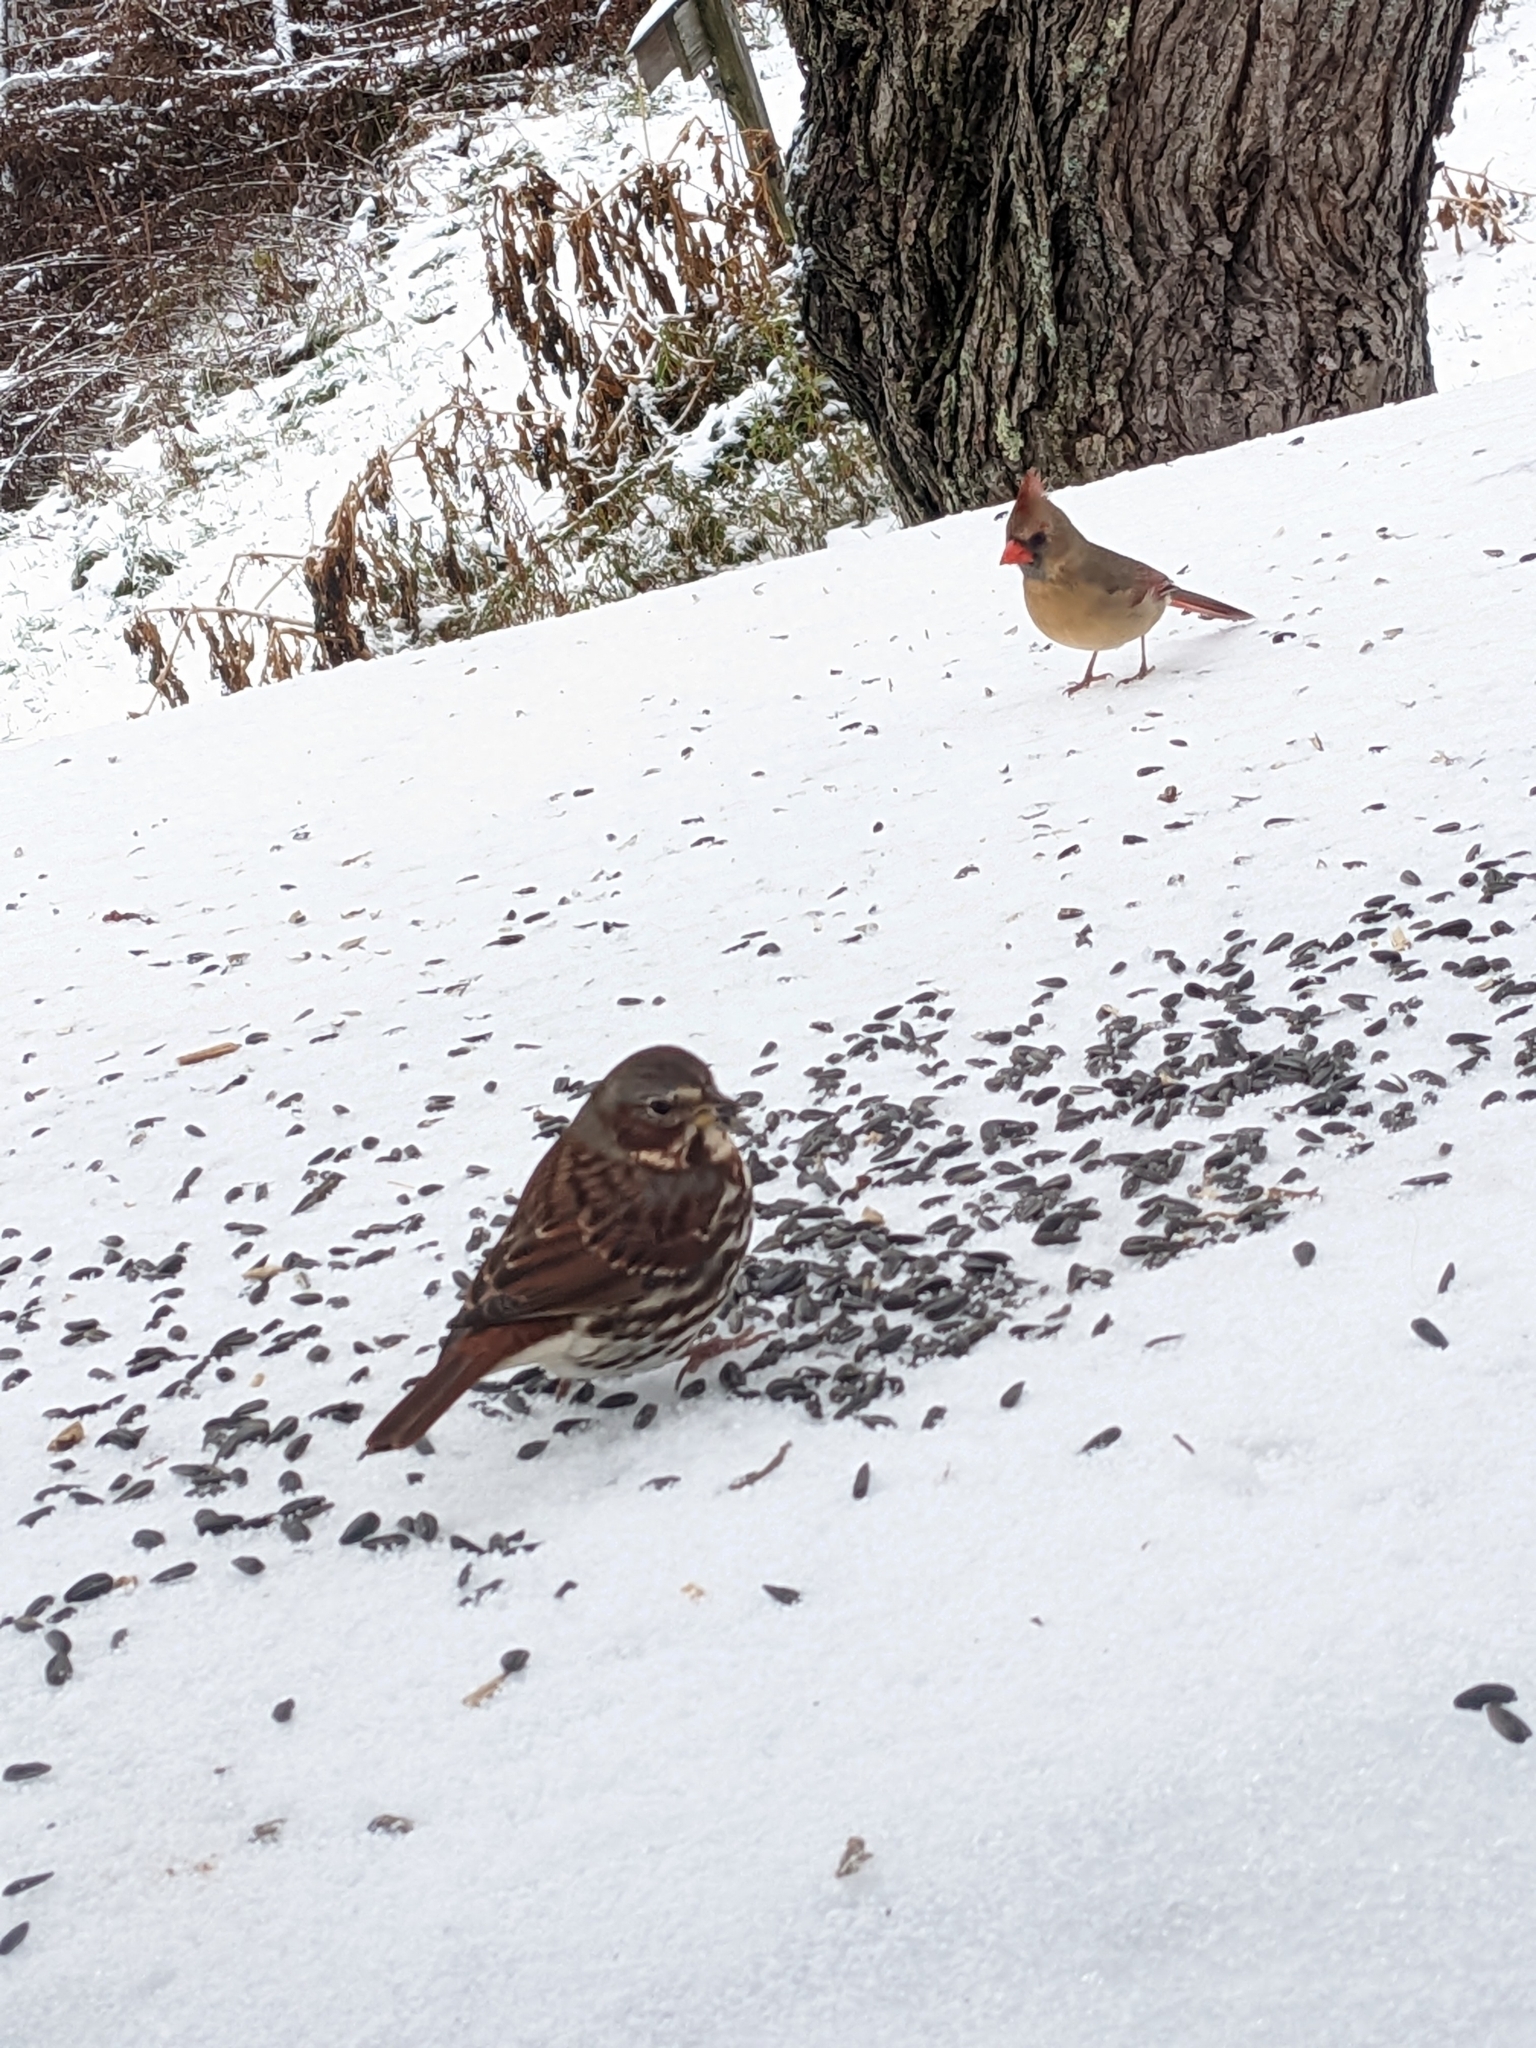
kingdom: Animalia
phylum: Chordata
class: Aves
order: Passeriformes
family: Passerellidae
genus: Passerella
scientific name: Passerella iliaca
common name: Fox sparrow
